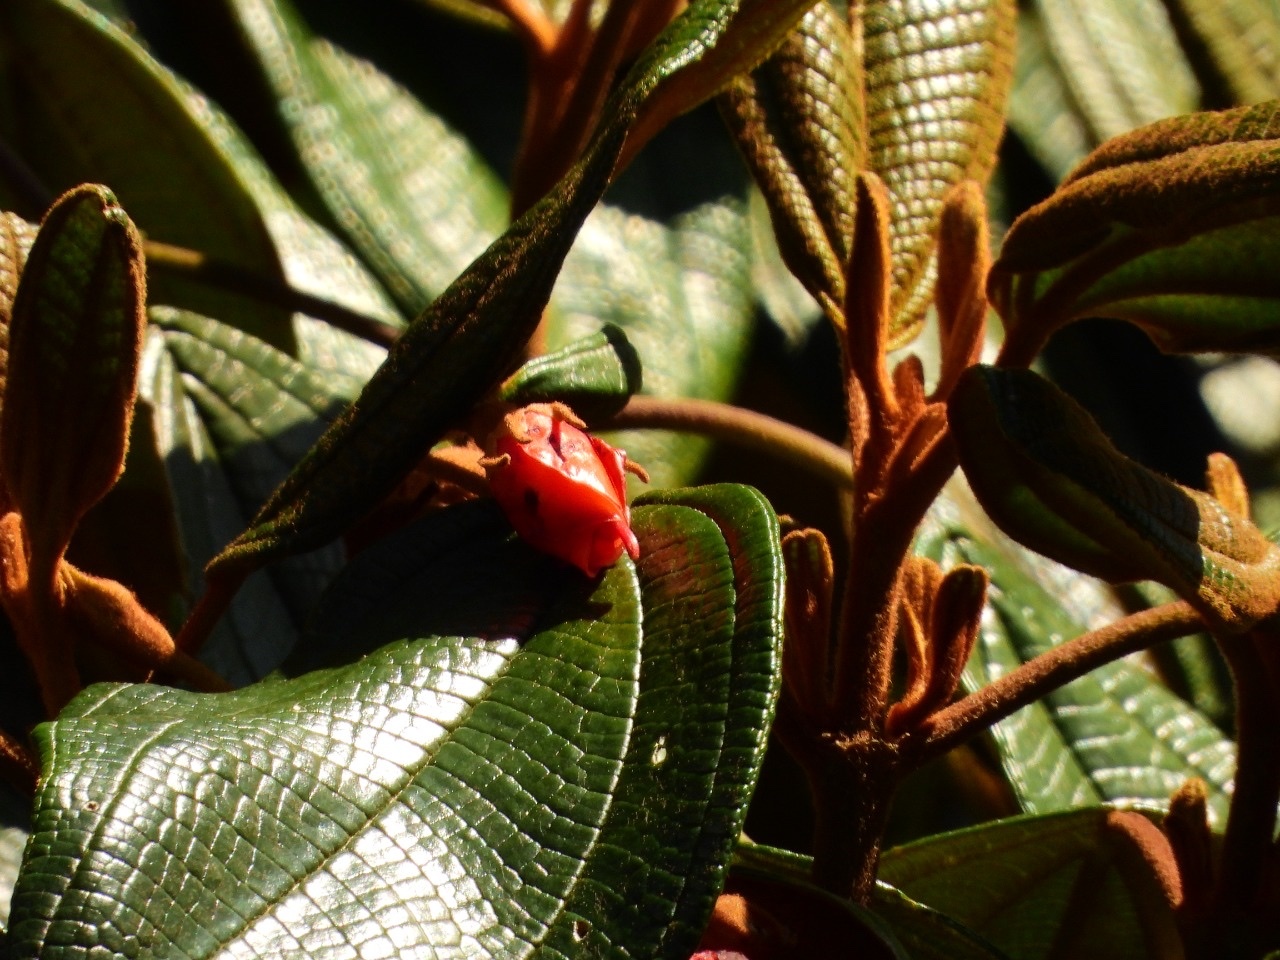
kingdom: Plantae
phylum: Tracheophyta
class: Magnoliopsida
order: Myrtales
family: Melastomataceae
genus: Meriania
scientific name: Meriania colombiana
